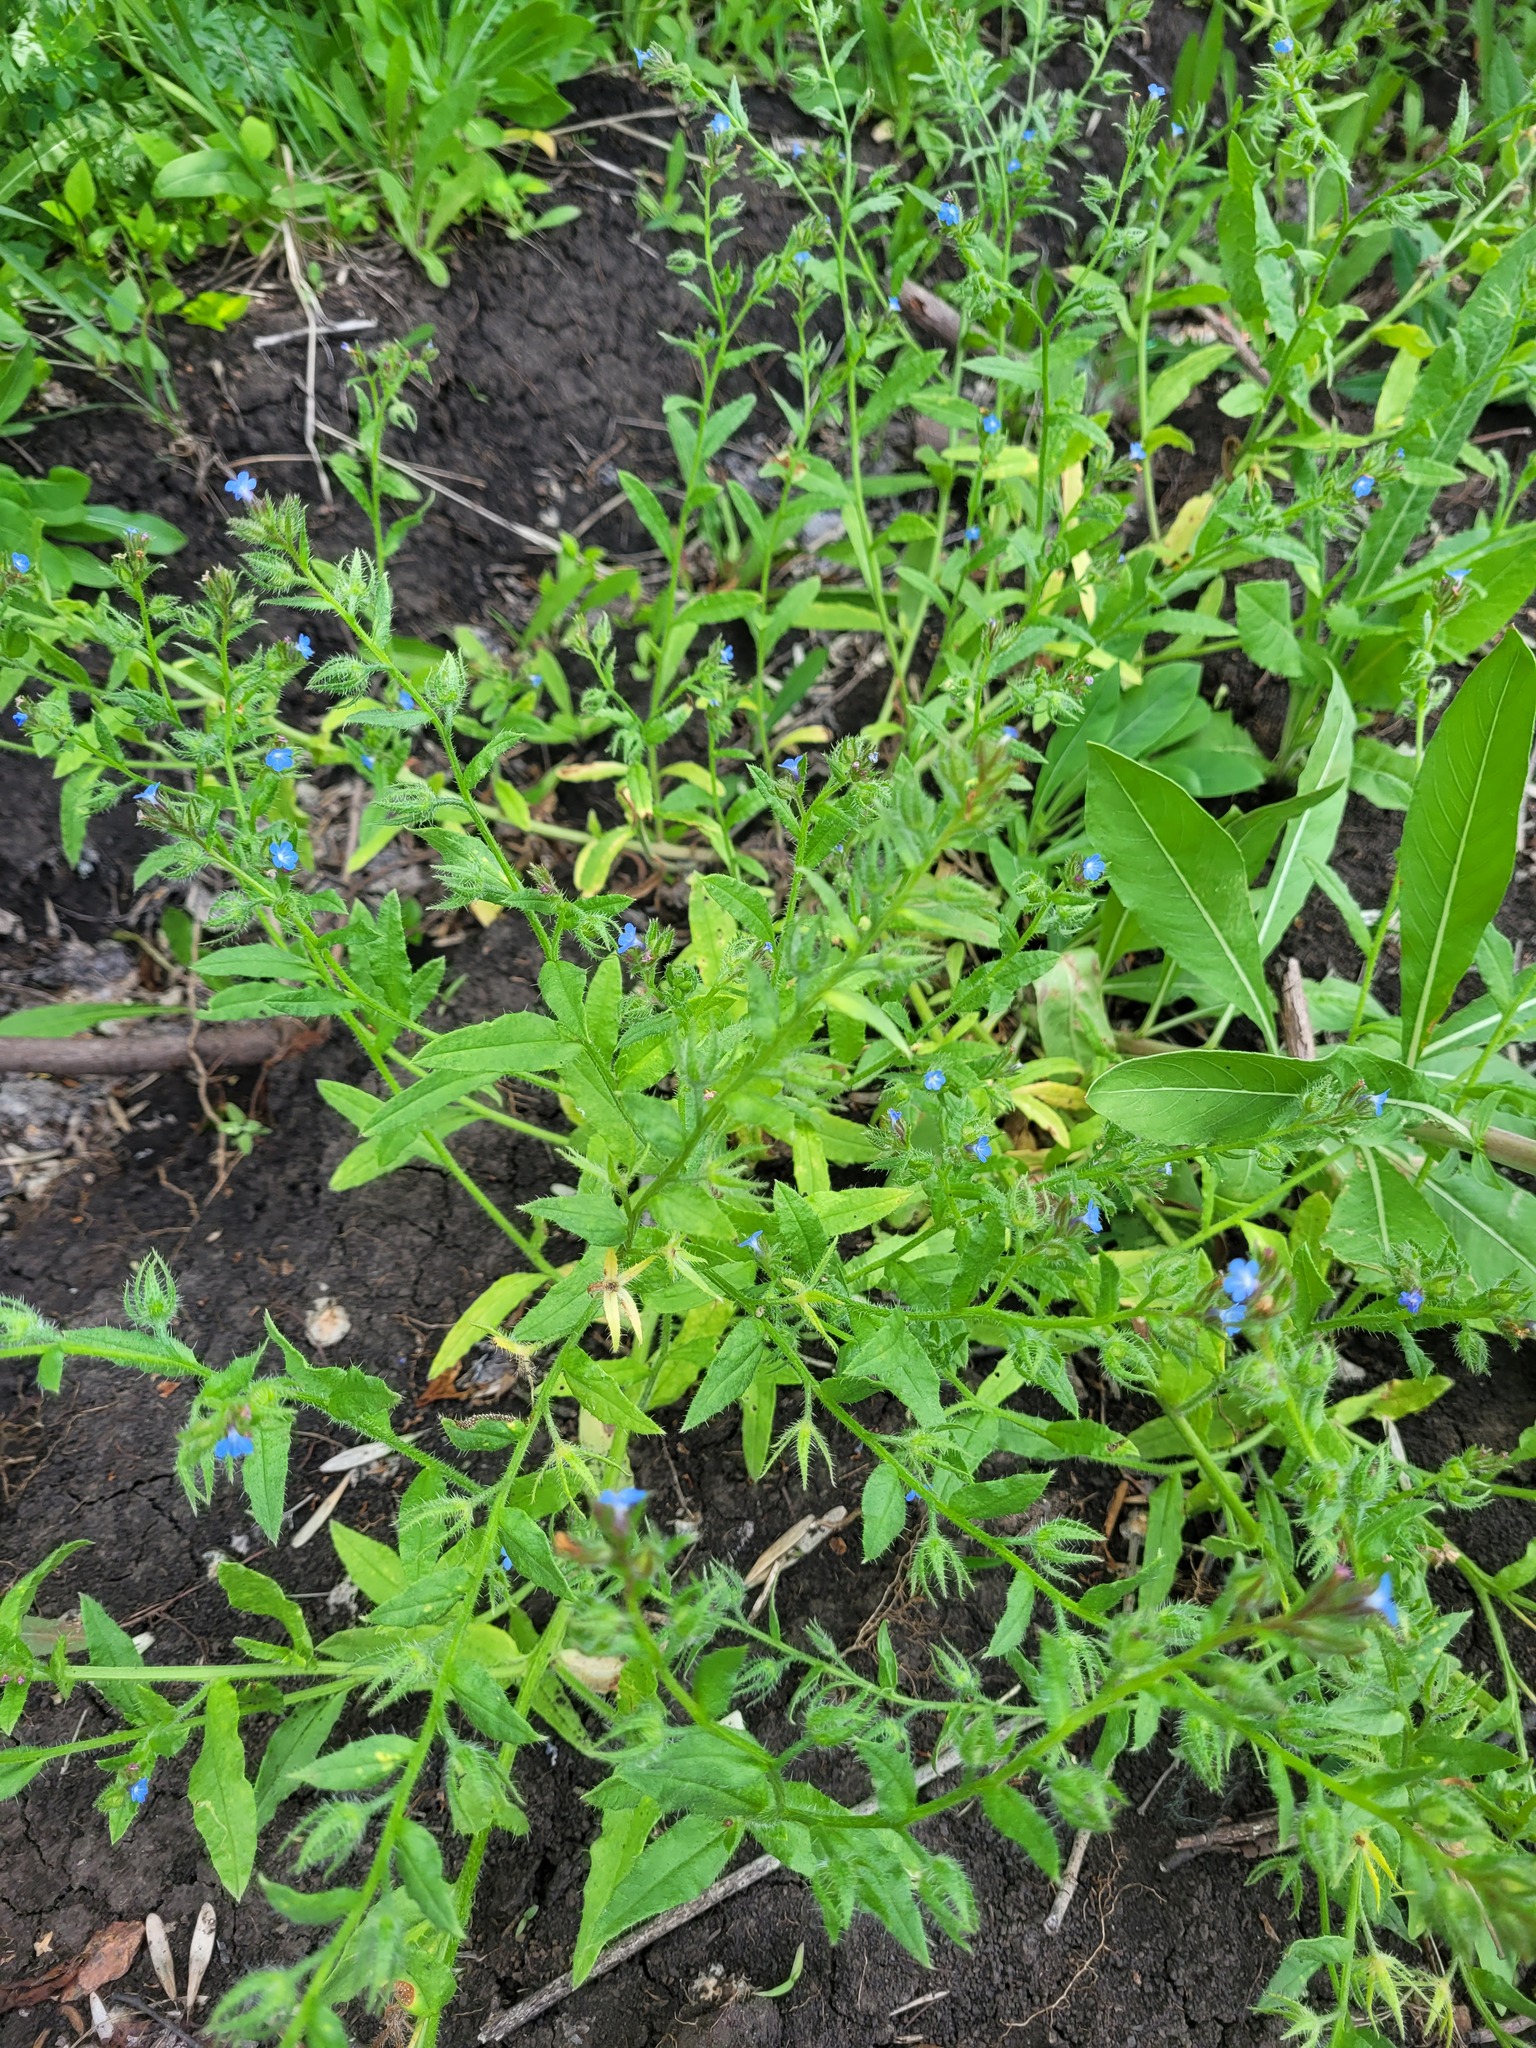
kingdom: Plantae
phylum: Tracheophyta
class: Magnoliopsida
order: Boraginales
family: Boraginaceae
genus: Lycopsis
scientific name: Lycopsis arvensis
